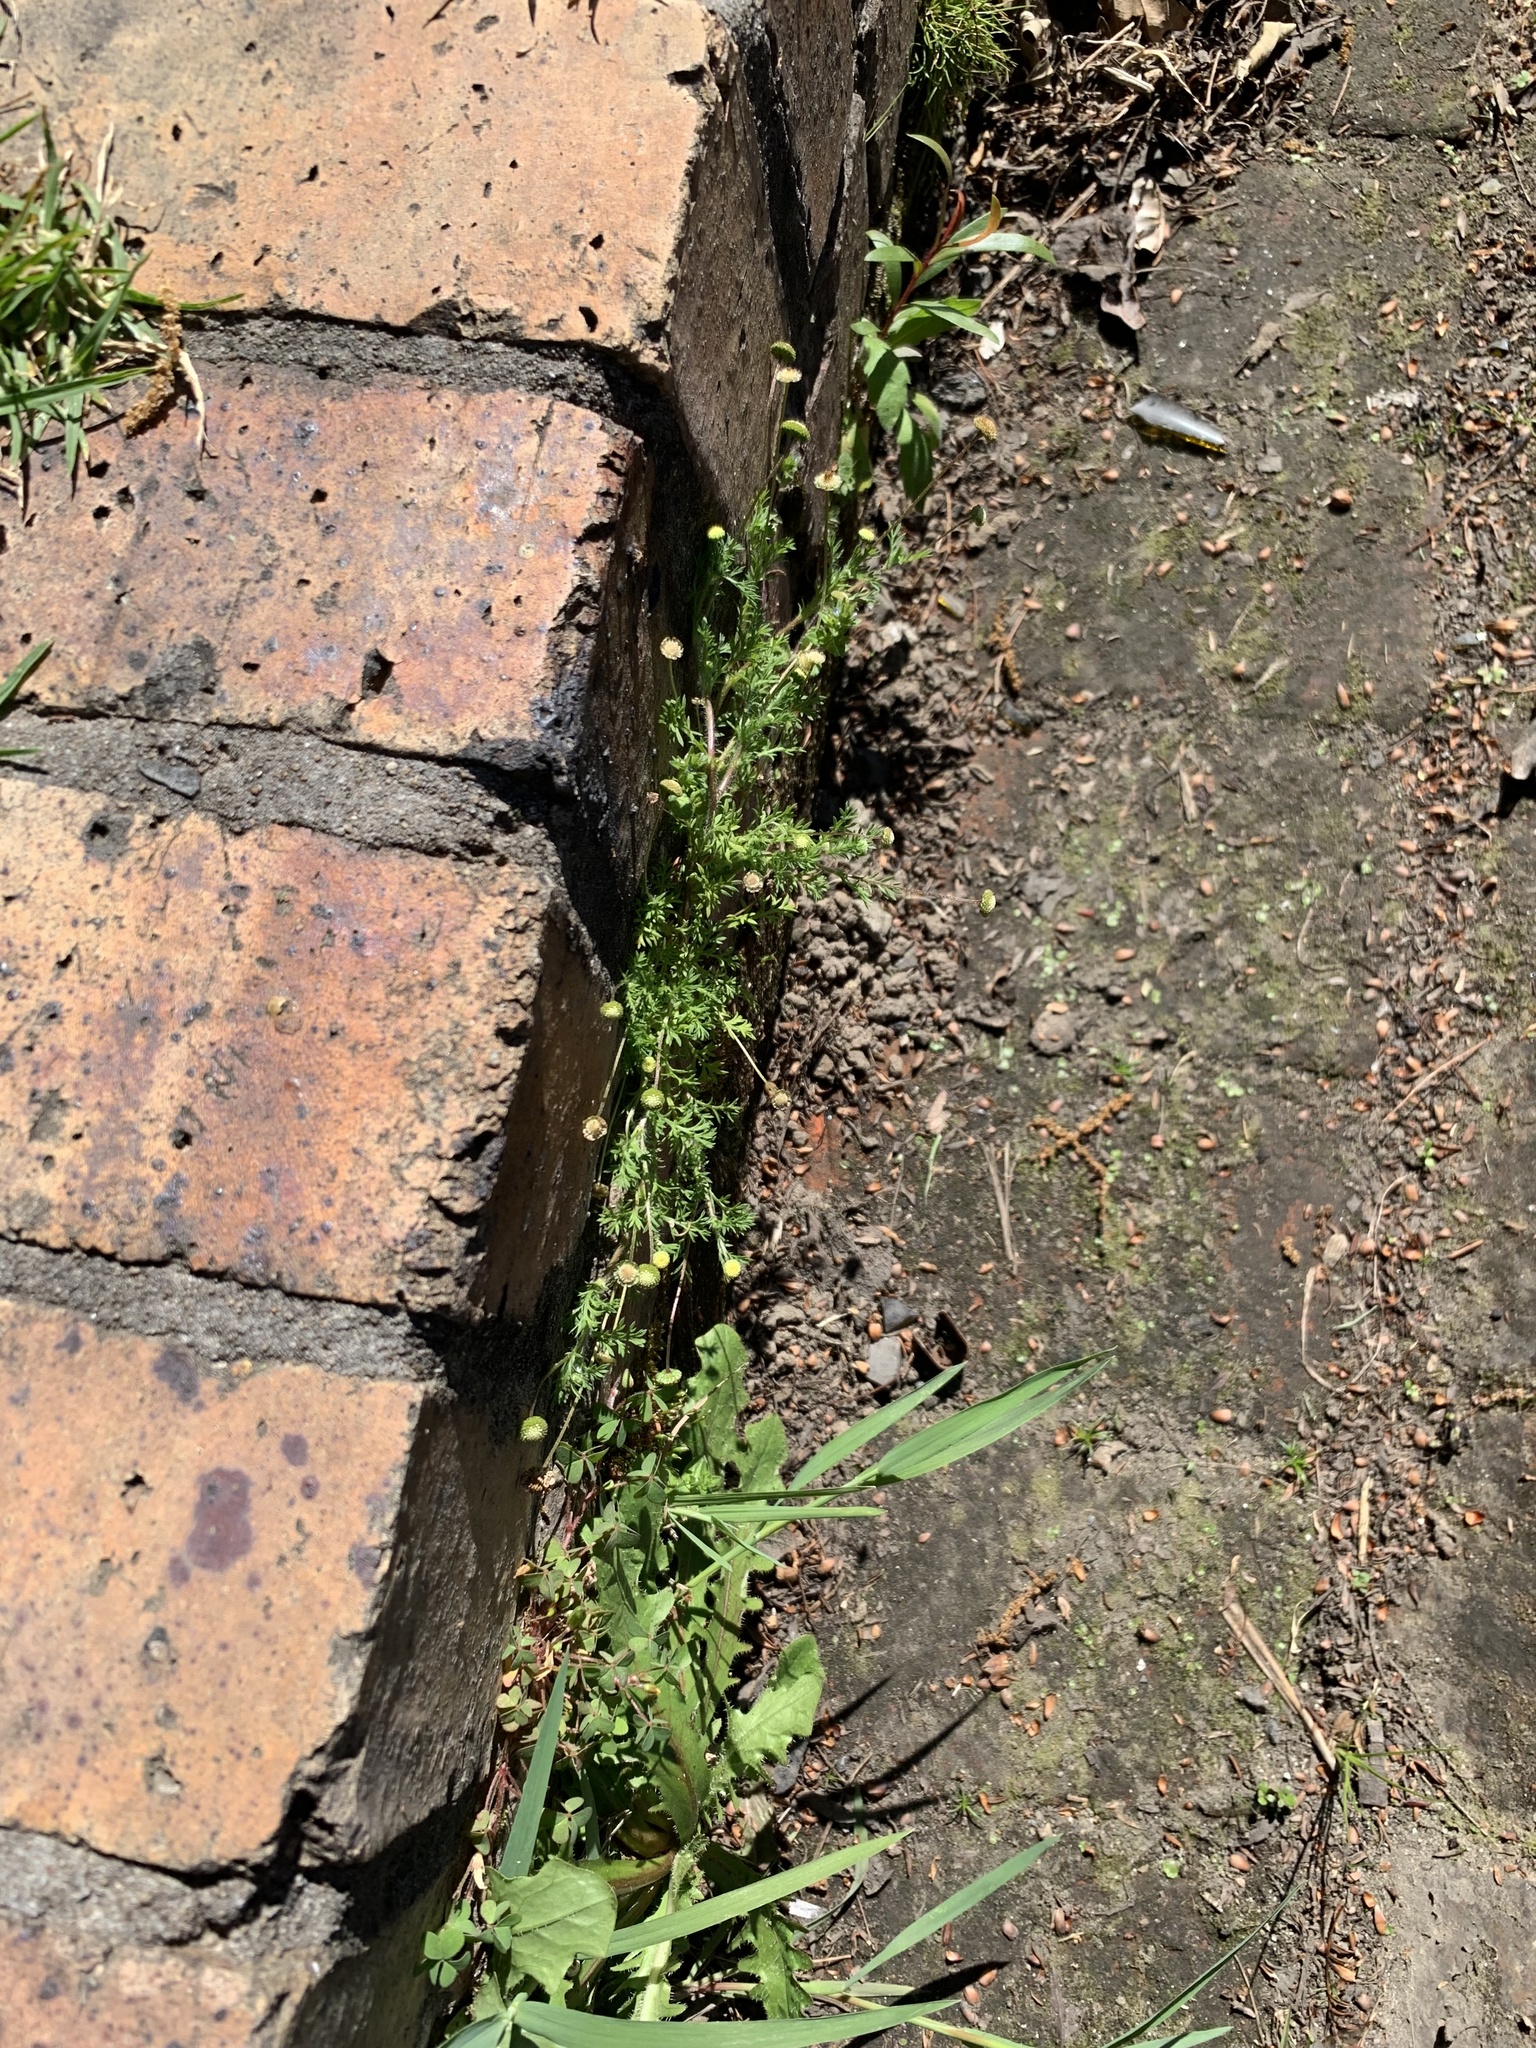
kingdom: Plantae
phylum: Tracheophyta
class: Magnoliopsida
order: Asterales
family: Asteraceae
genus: Cotula
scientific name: Cotula australis
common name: Australian waterbuttons
